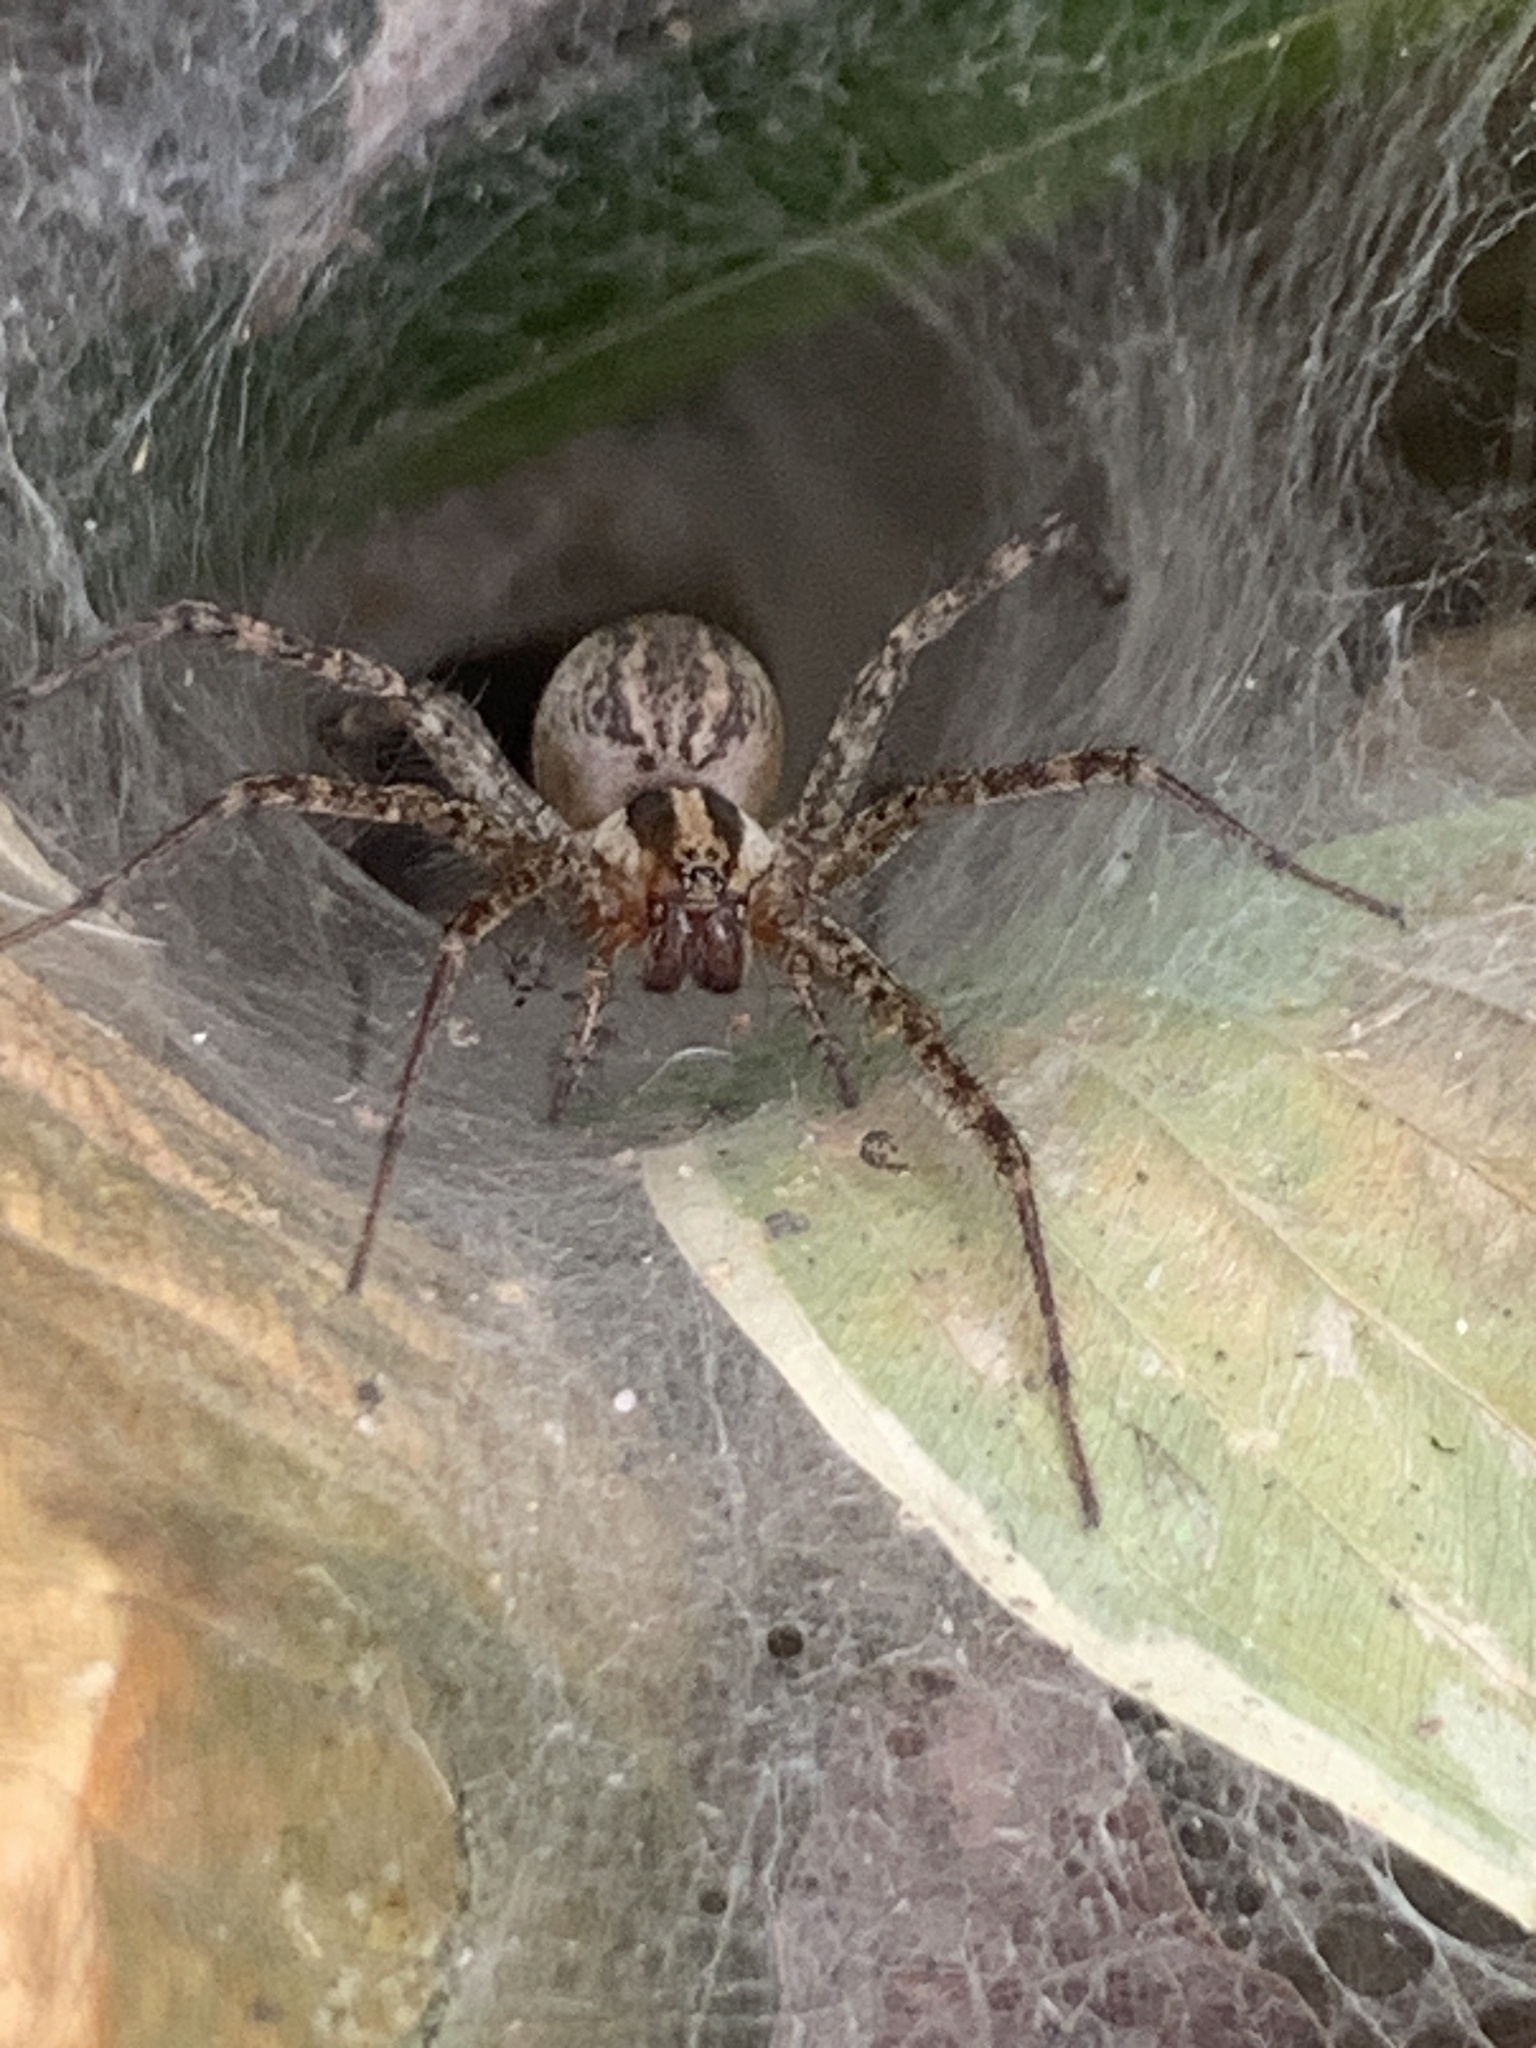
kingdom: Animalia
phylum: Arthropoda
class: Arachnida
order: Araneae
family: Agelenidae
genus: Agelenopsis
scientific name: Agelenopsis
